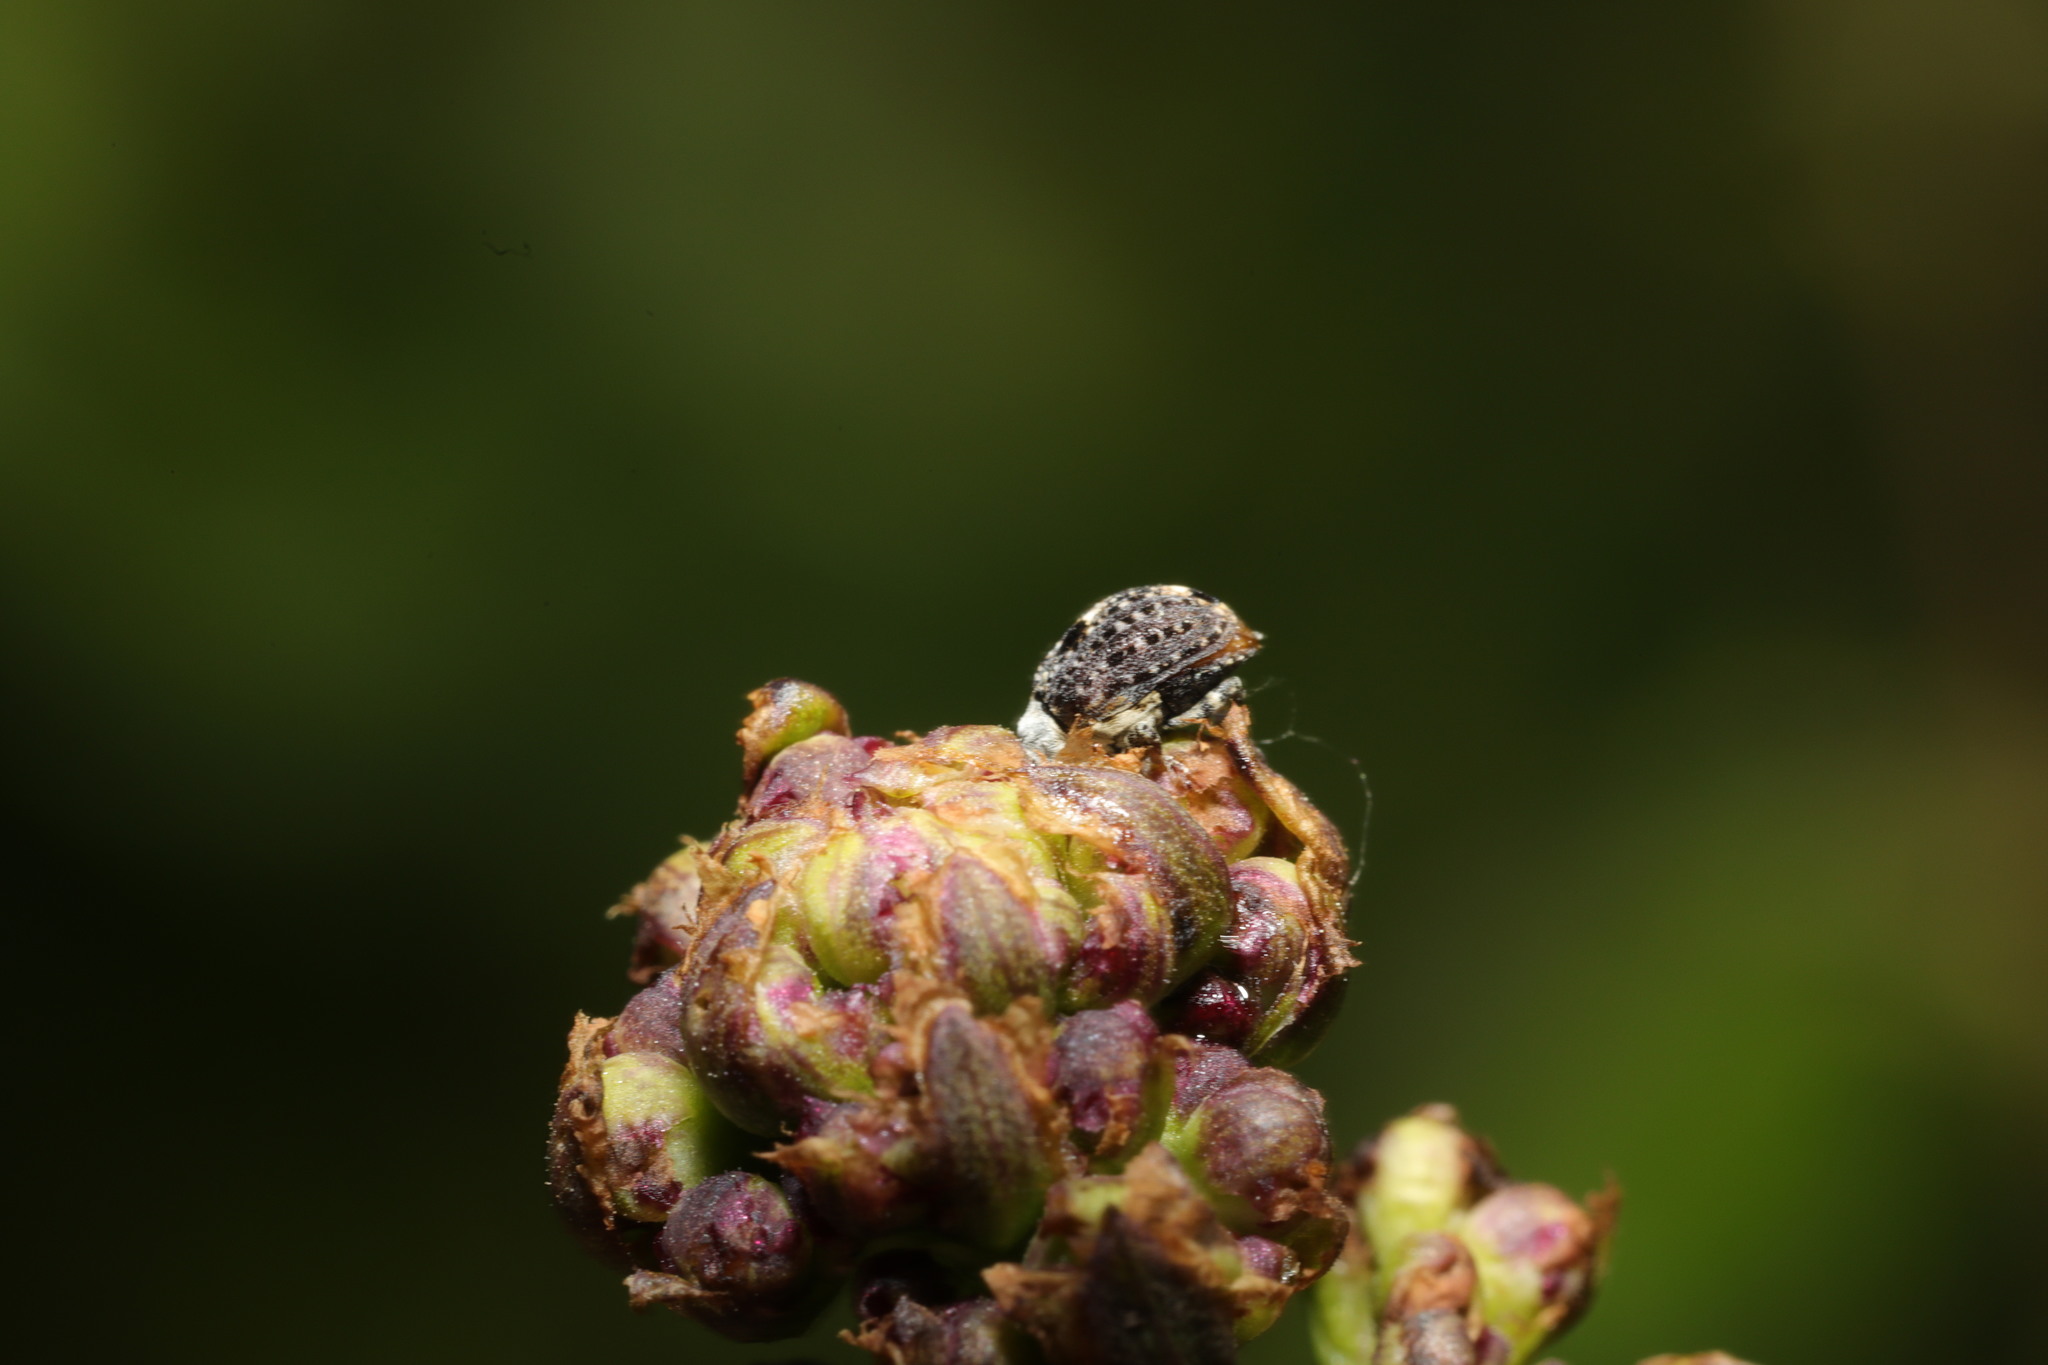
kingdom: Animalia
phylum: Arthropoda
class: Insecta
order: Coleoptera
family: Curculionidae
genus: Cionus
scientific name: Cionus scrophulariae
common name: Common figwort weevil
